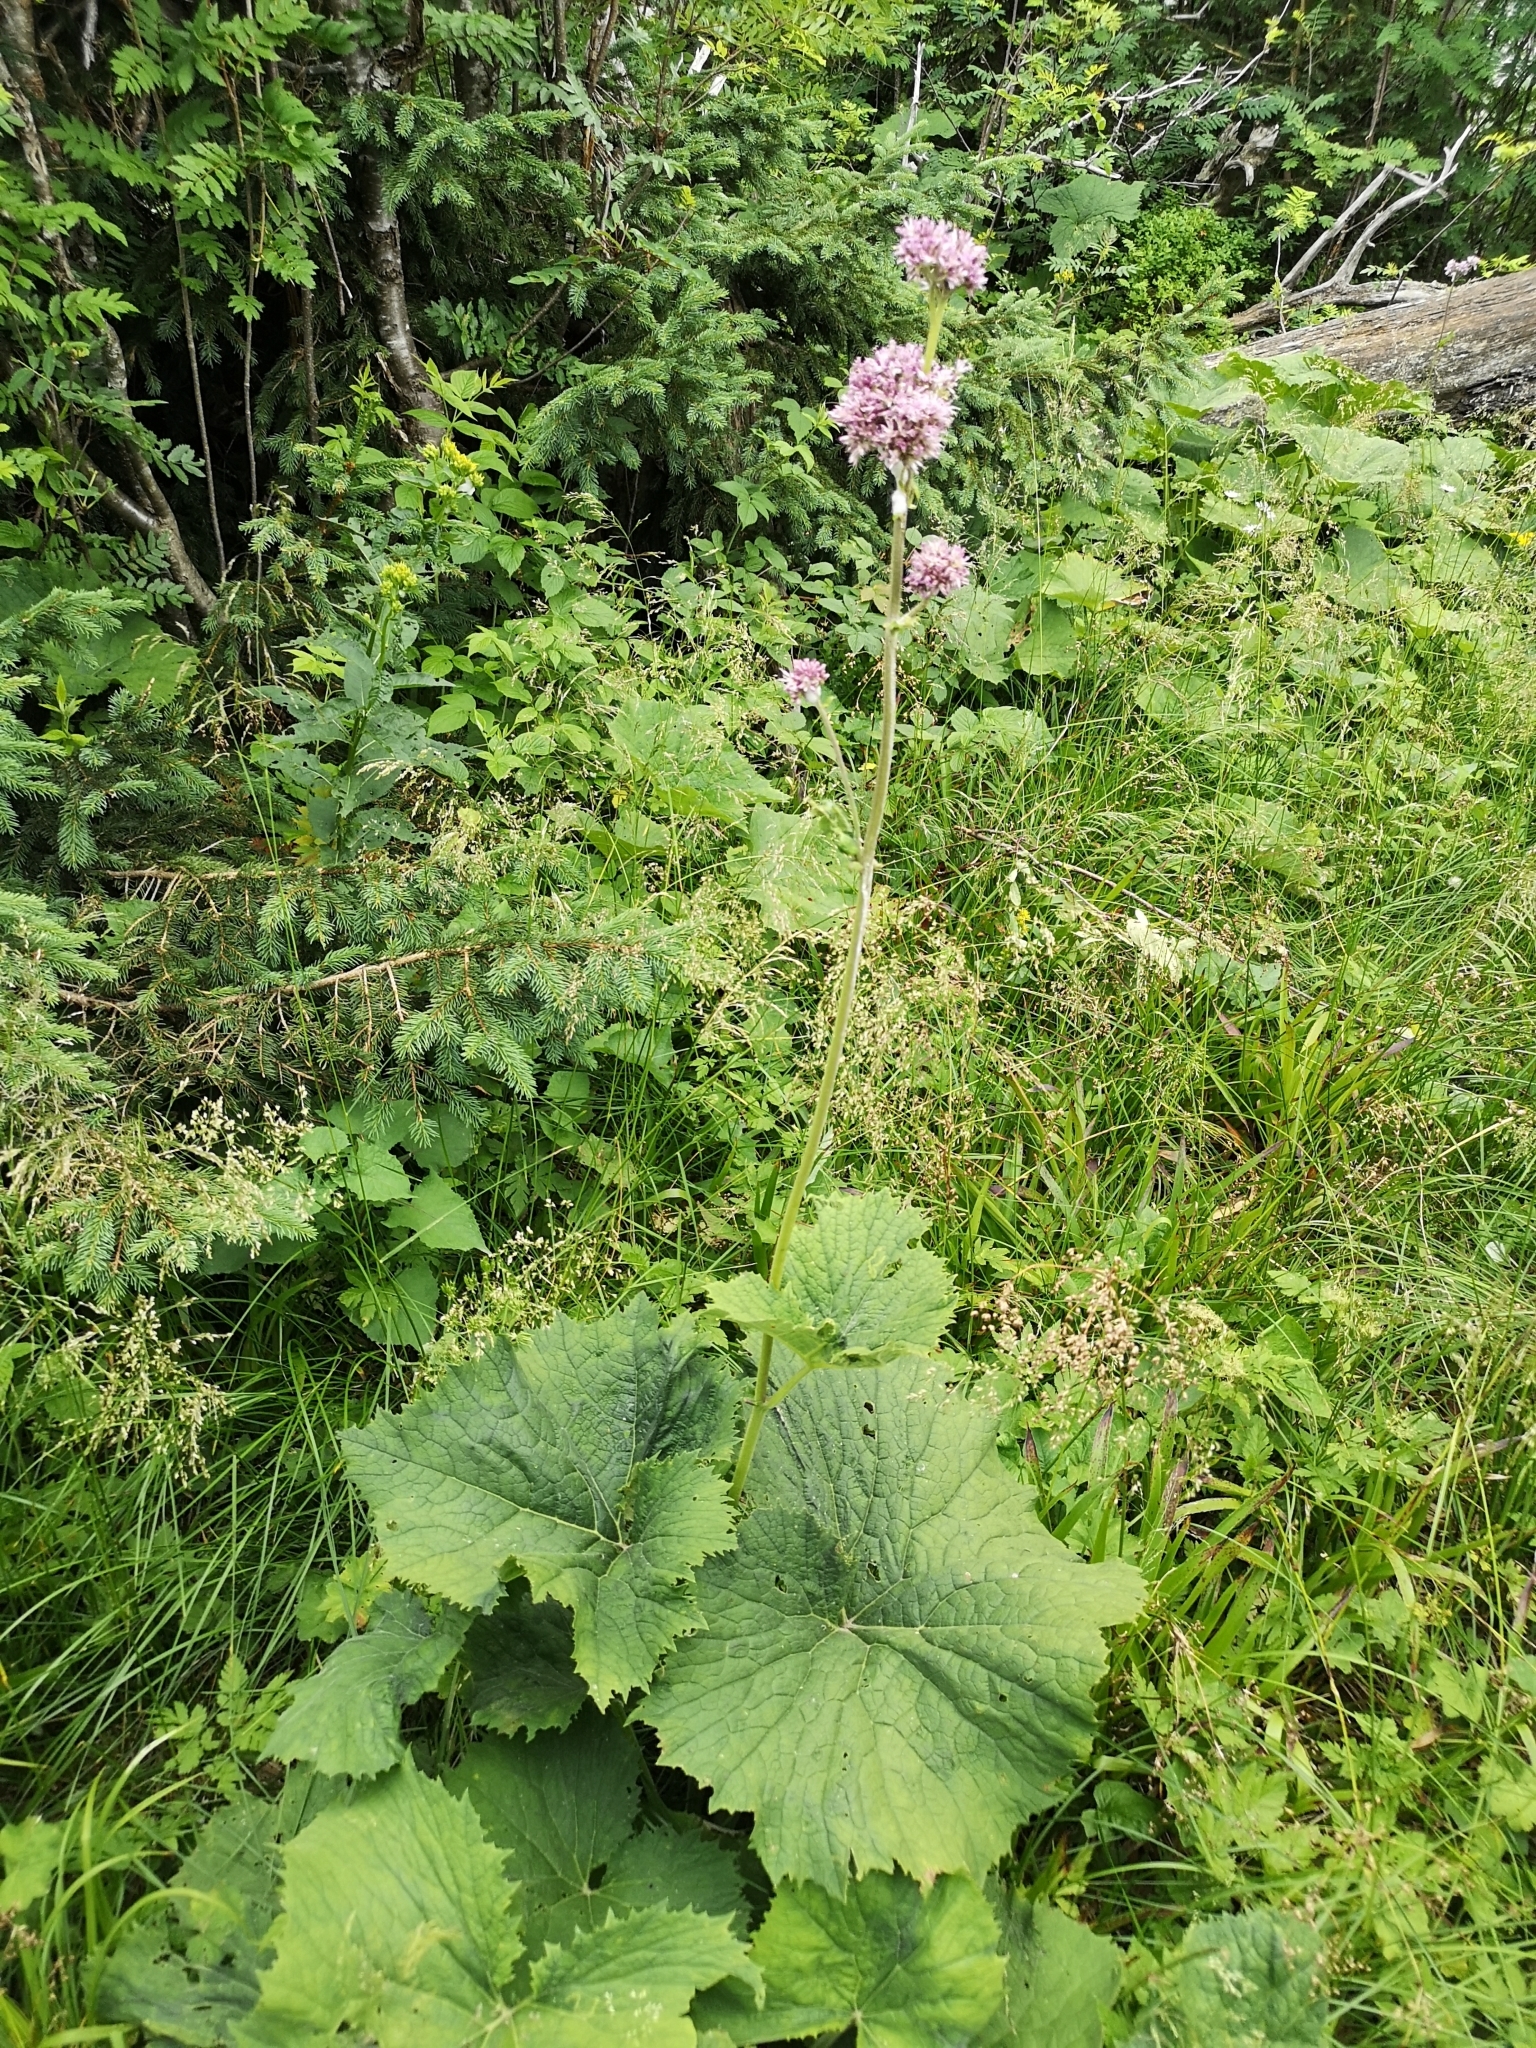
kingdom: Plantae
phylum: Tracheophyta
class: Magnoliopsida
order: Asterales
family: Asteraceae
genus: Adenostyles
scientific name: Adenostyles alliariae
